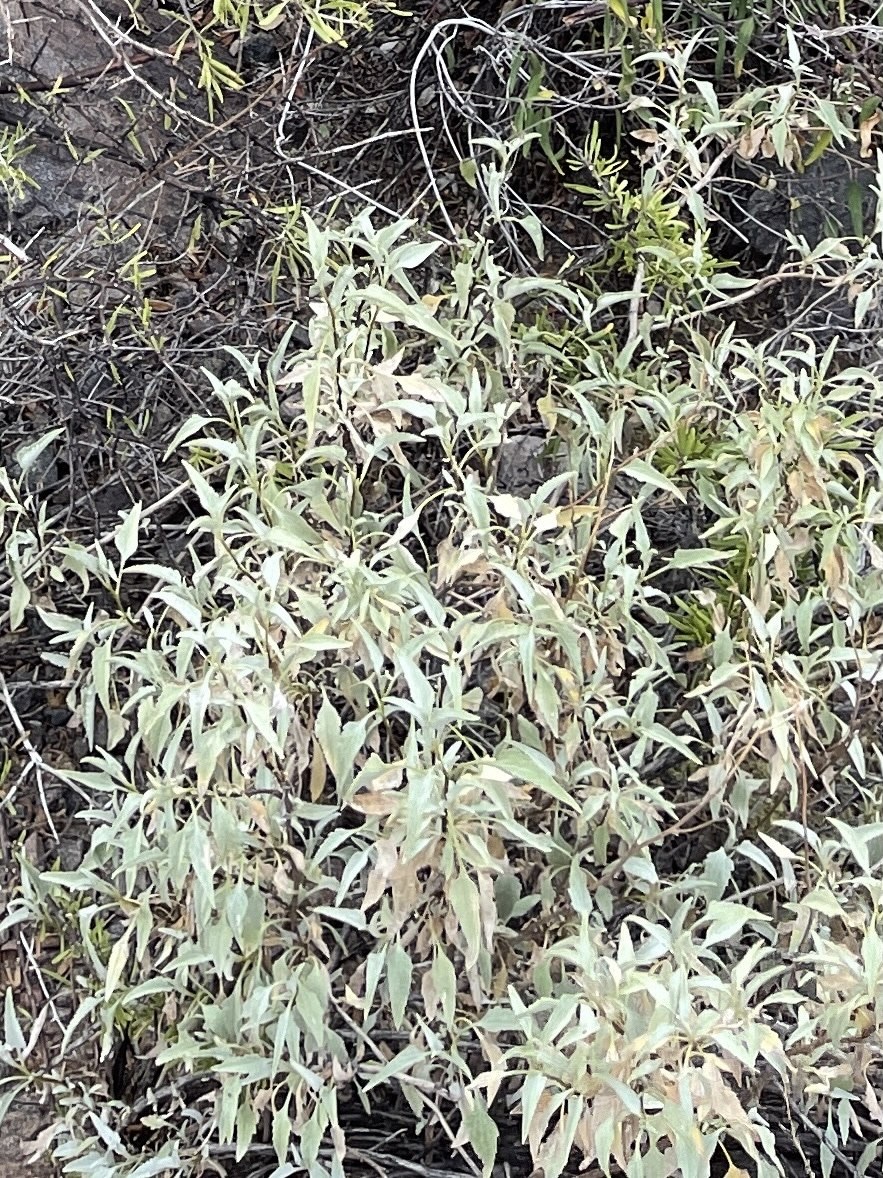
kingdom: Plantae
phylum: Tracheophyta
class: Magnoliopsida
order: Asterales
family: Asteraceae
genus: Ambrosia
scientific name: Ambrosia deltoidea
